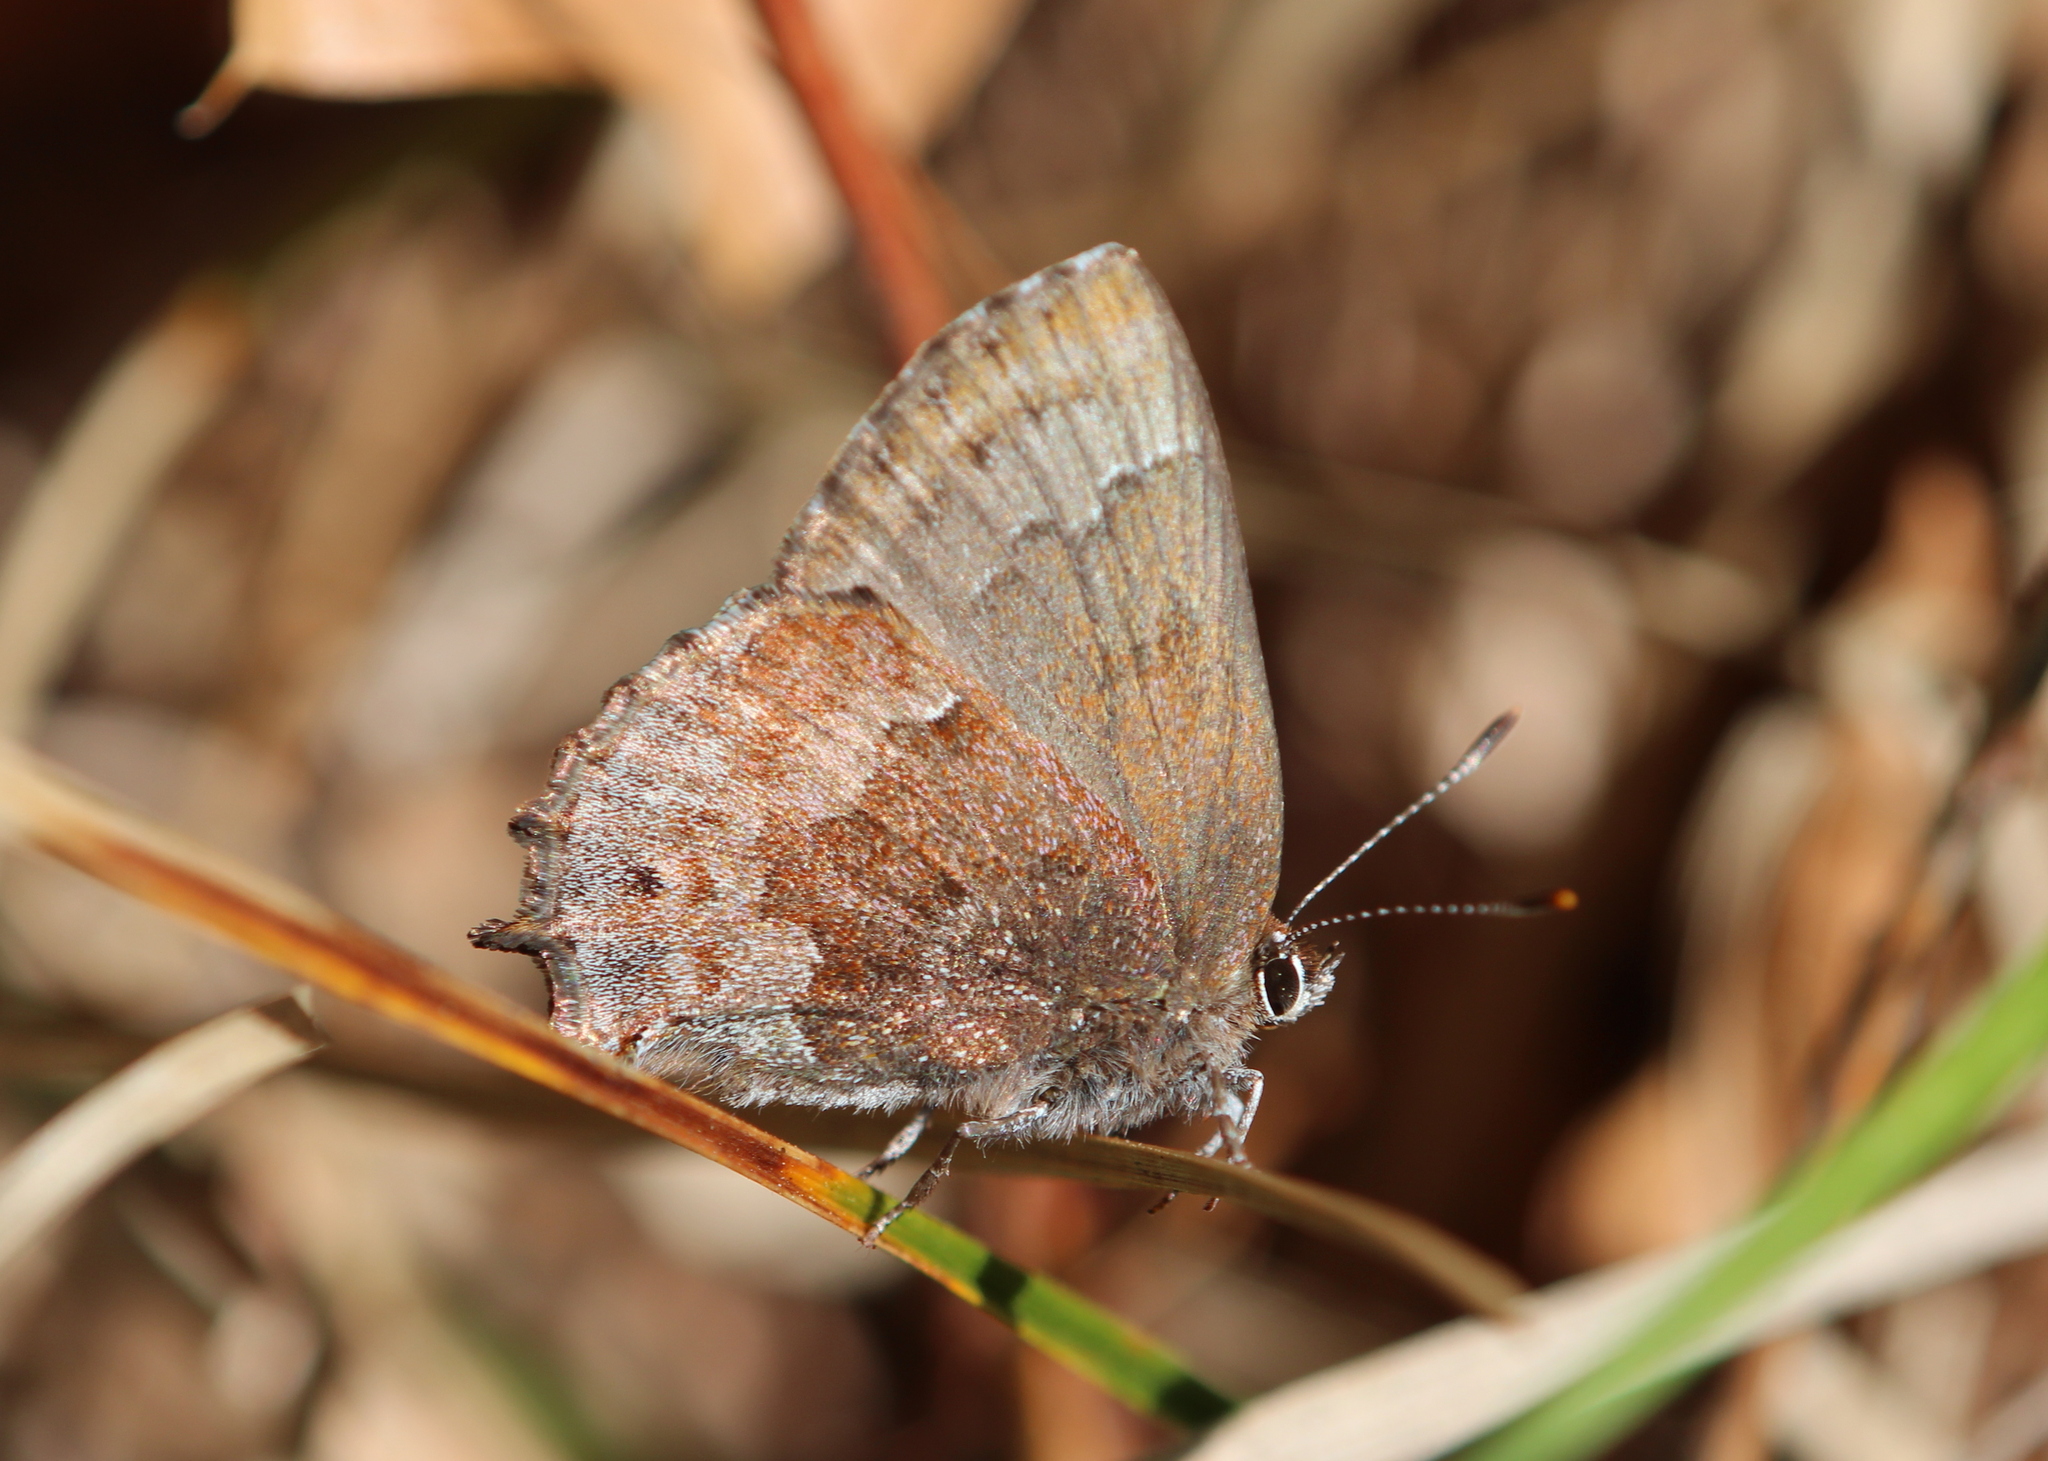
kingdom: Animalia
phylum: Arthropoda
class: Insecta
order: Lepidoptera
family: Lycaenidae
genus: Thecla
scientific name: Thecla irus
